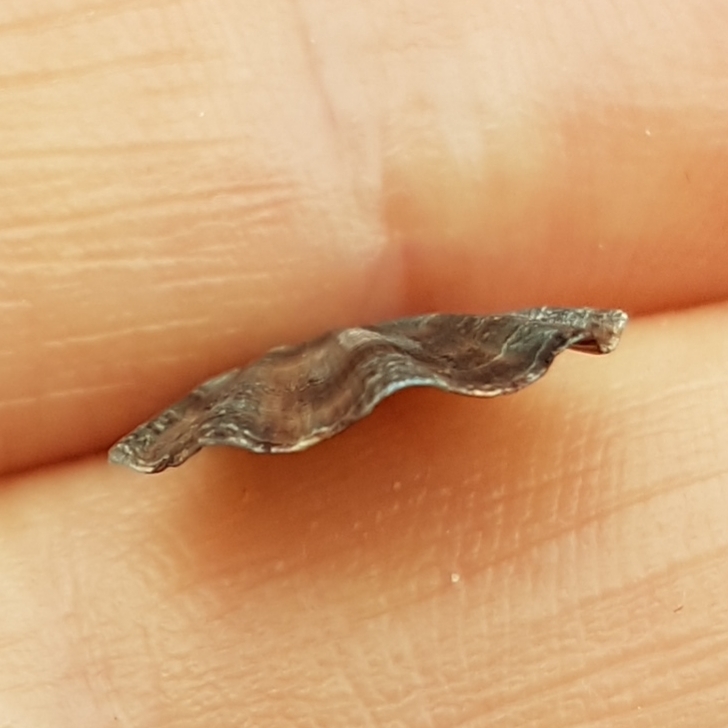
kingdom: Animalia
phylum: Mollusca
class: Bivalvia
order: Pectinida
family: Pectinidae
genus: Flexopecten
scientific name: Flexopecten flexuosus
